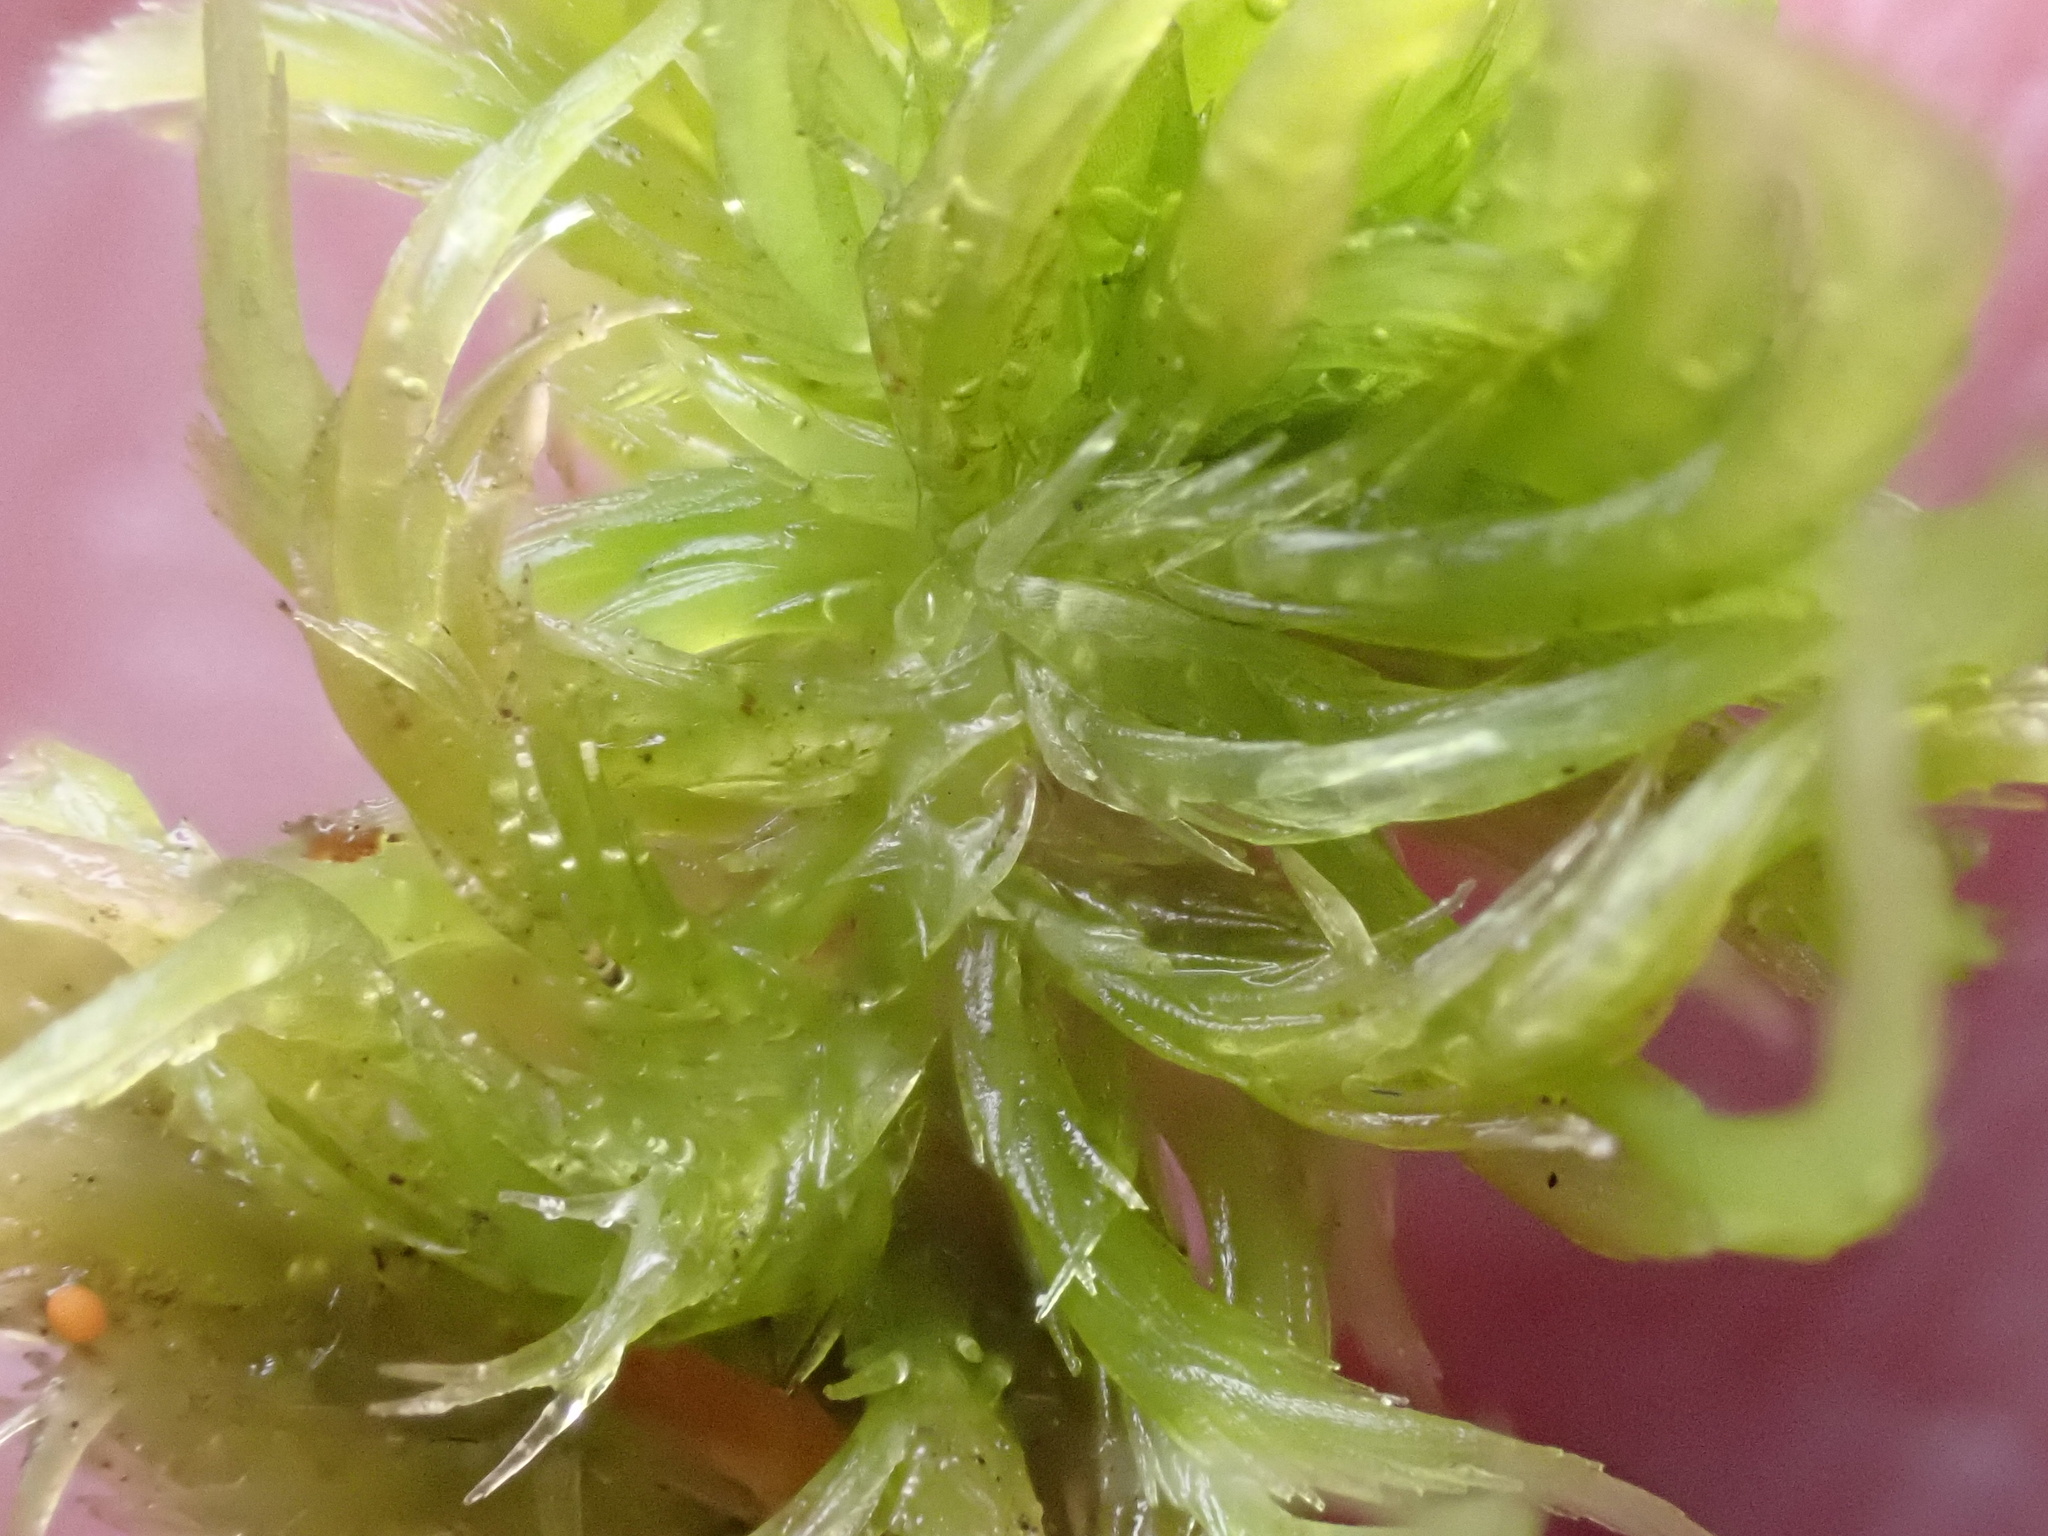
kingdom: Plantae
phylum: Bryophyta
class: Sphagnopsida
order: Sphagnales
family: Sphagnaceae
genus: Sphagnum
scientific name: Sphagnum cuspidatum
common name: Feathery peat moss
